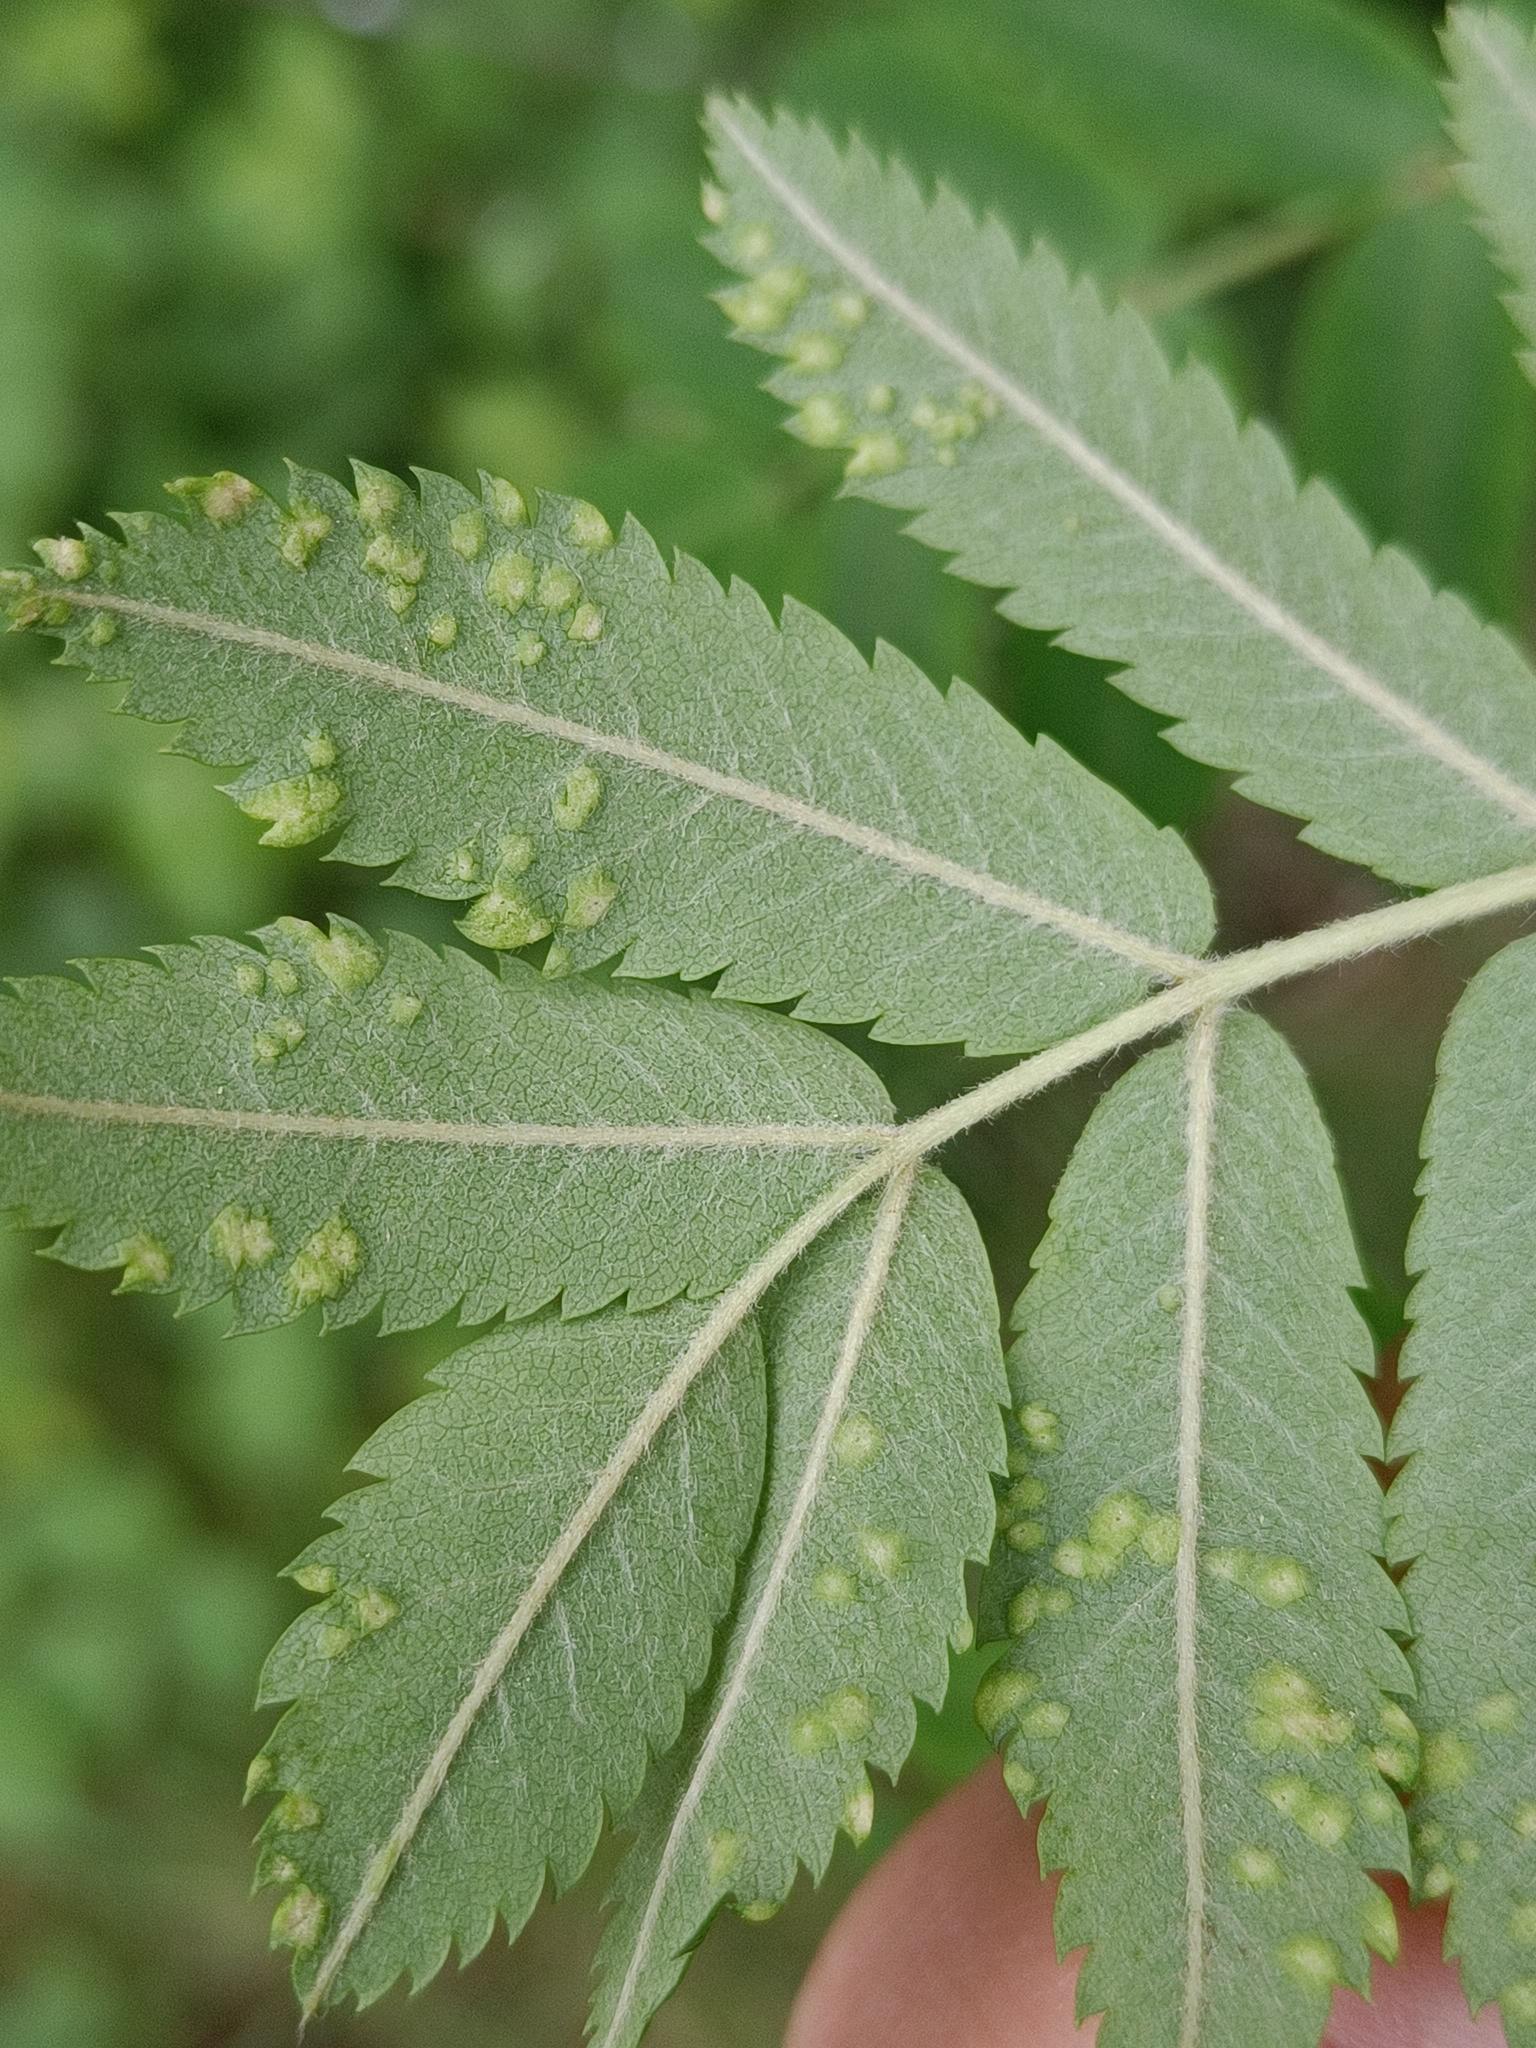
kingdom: Animalia
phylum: Arthropoda
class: Arachnida
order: Trombidiformes
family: Eriophyidae
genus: Eriophyes
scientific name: Eriophyes sorbi
